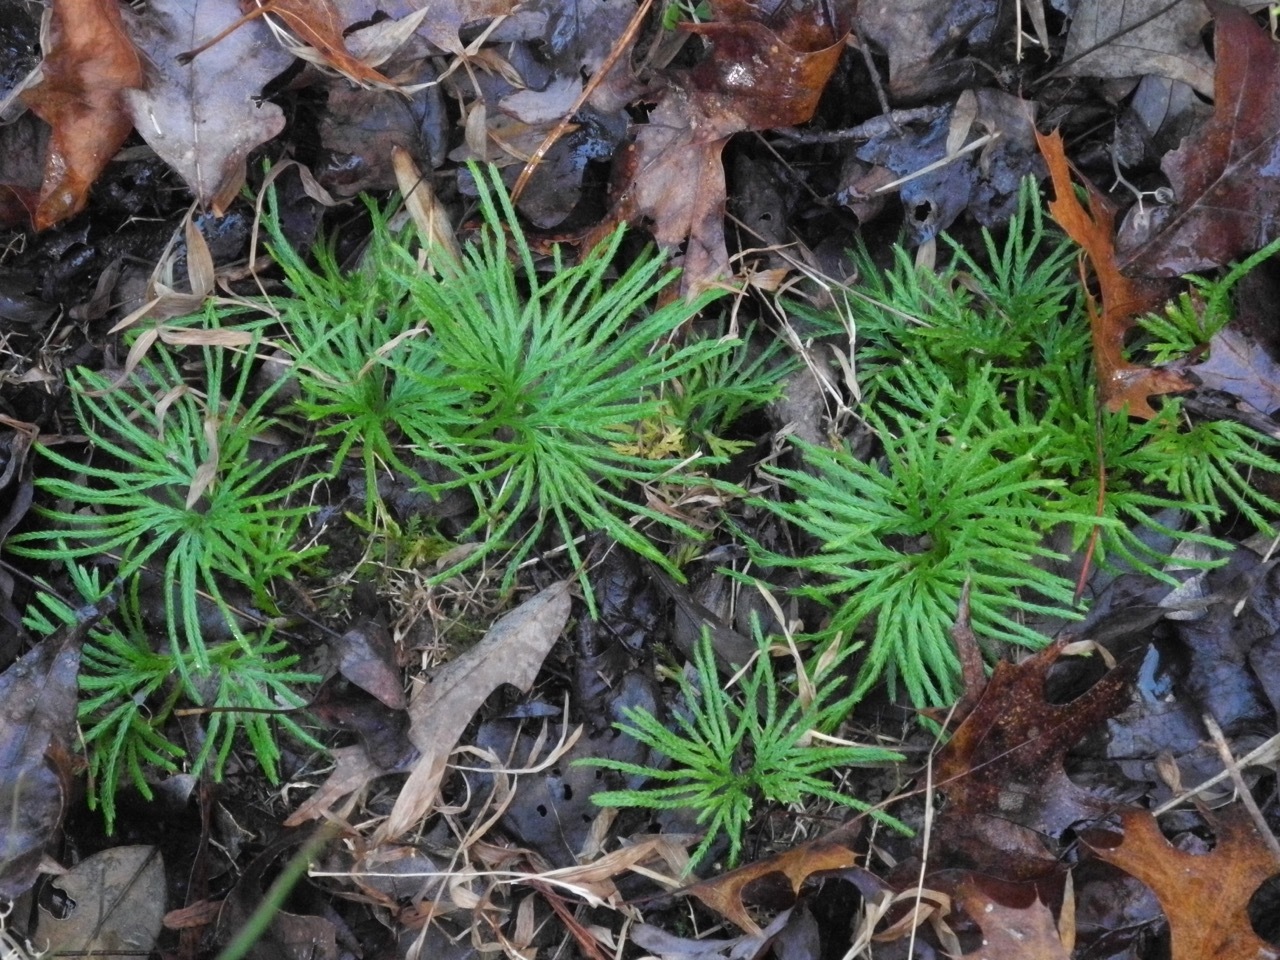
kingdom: Plantae
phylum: Tracheophyta
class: Lycopodiopsida
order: Lycopodiales
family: Lycopodiaceae
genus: Diphasiastrum
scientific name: Diphasiastrum digitatum
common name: Southern running-pine
